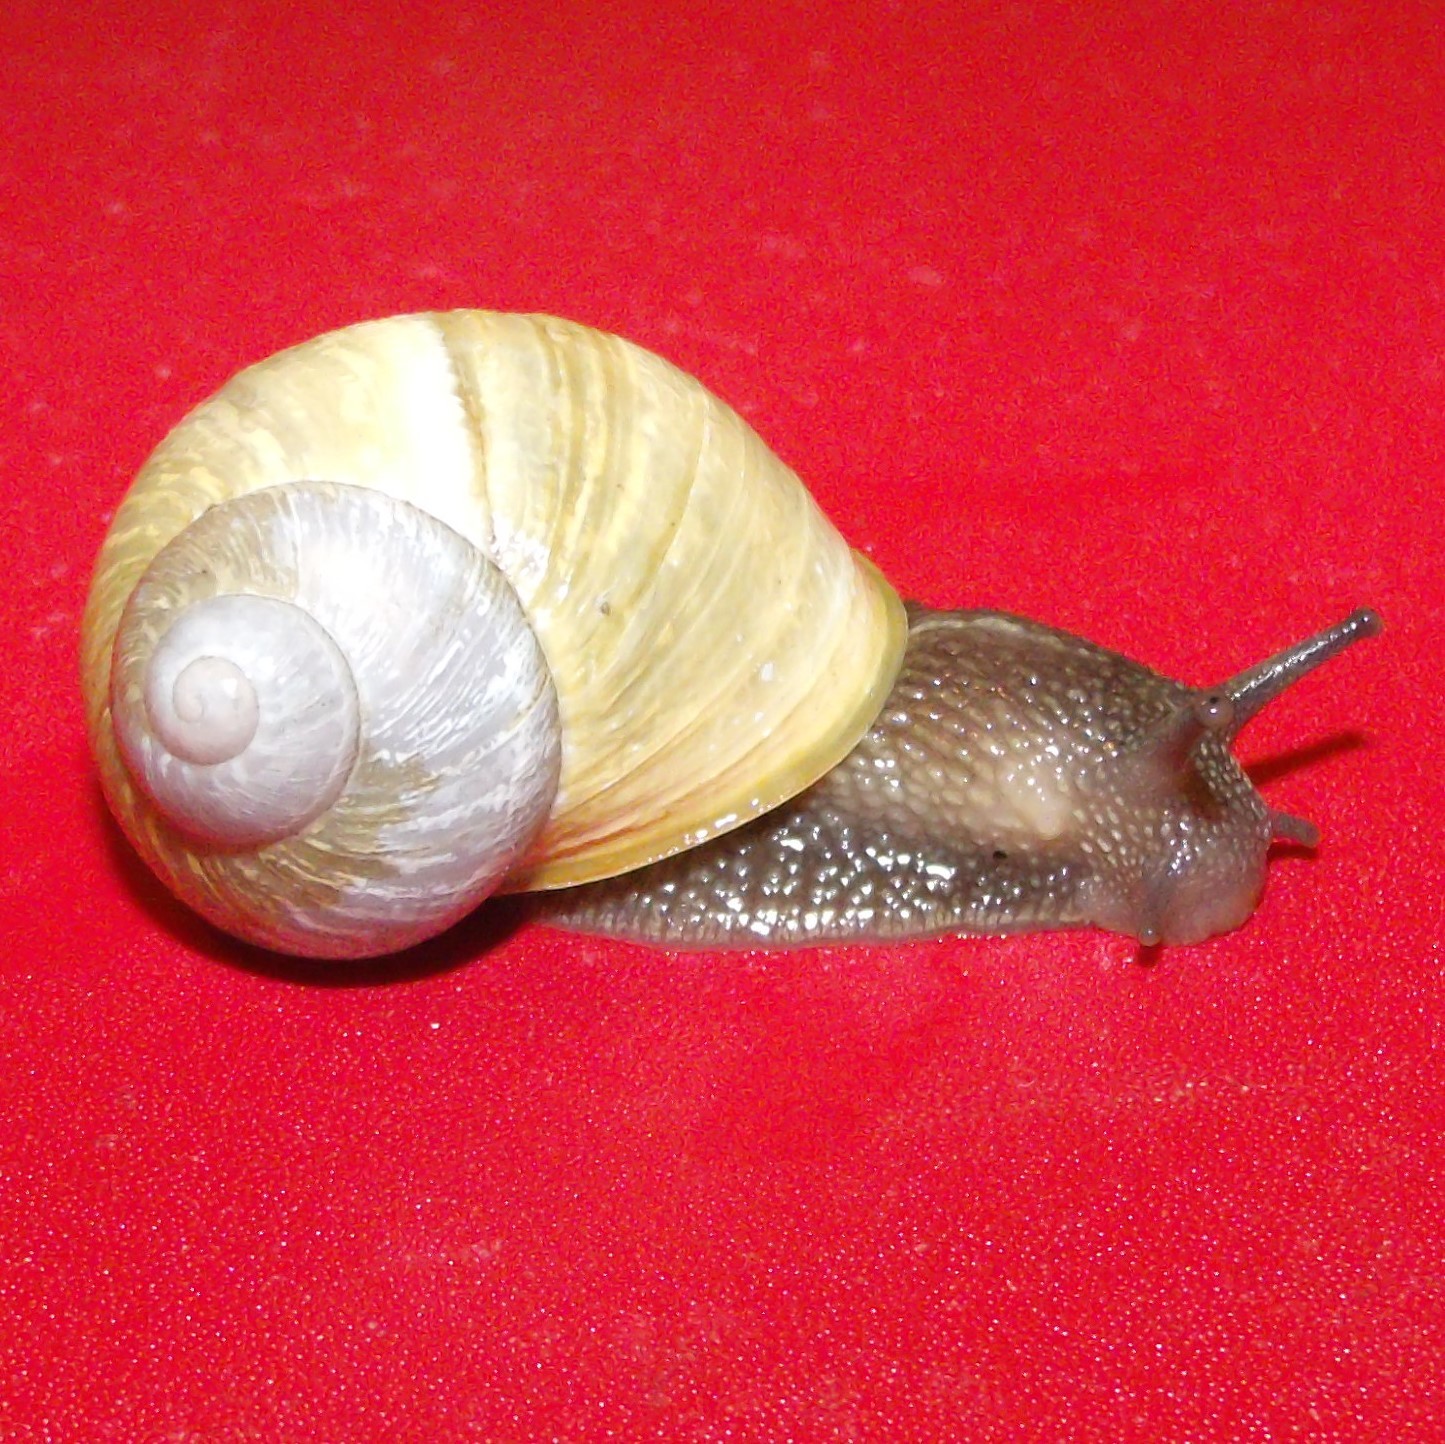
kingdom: Animalia
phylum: Mollusca
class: Gastropoda
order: Stylommatophora
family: Helicidae
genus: Cornu
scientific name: Cornu aspersum
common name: Brown garden snail
